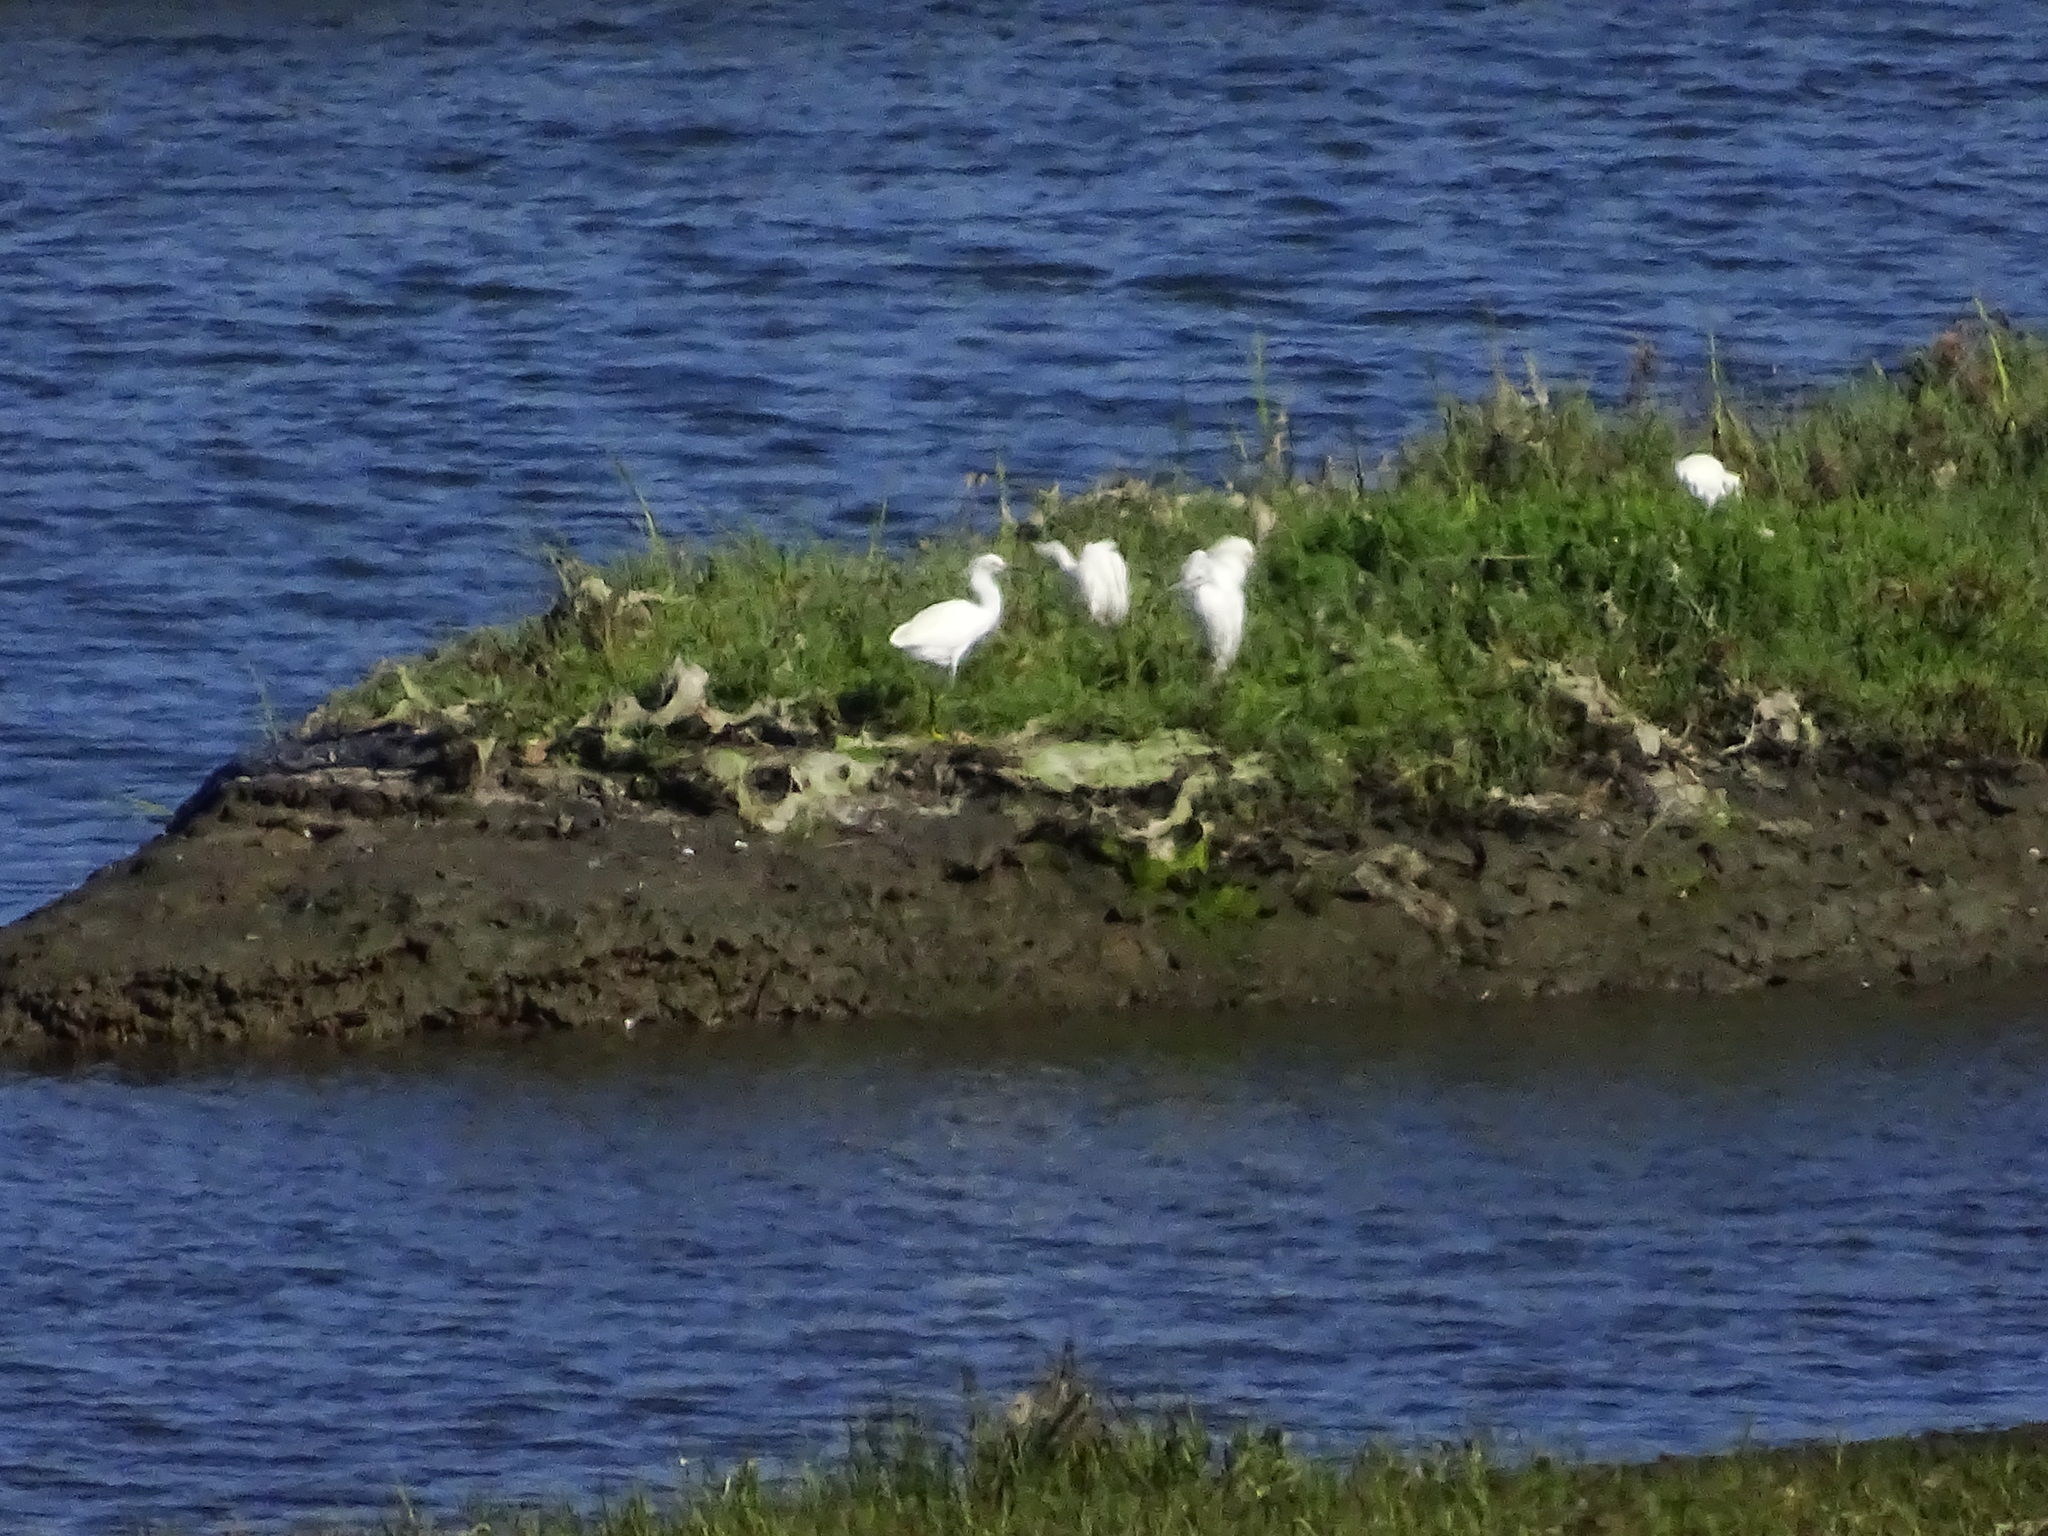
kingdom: Animalia
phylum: Chordata
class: Aves
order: Pelecaniformes
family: Ardeidae
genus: Egretta
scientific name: Egretta thula
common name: Snowy egret
